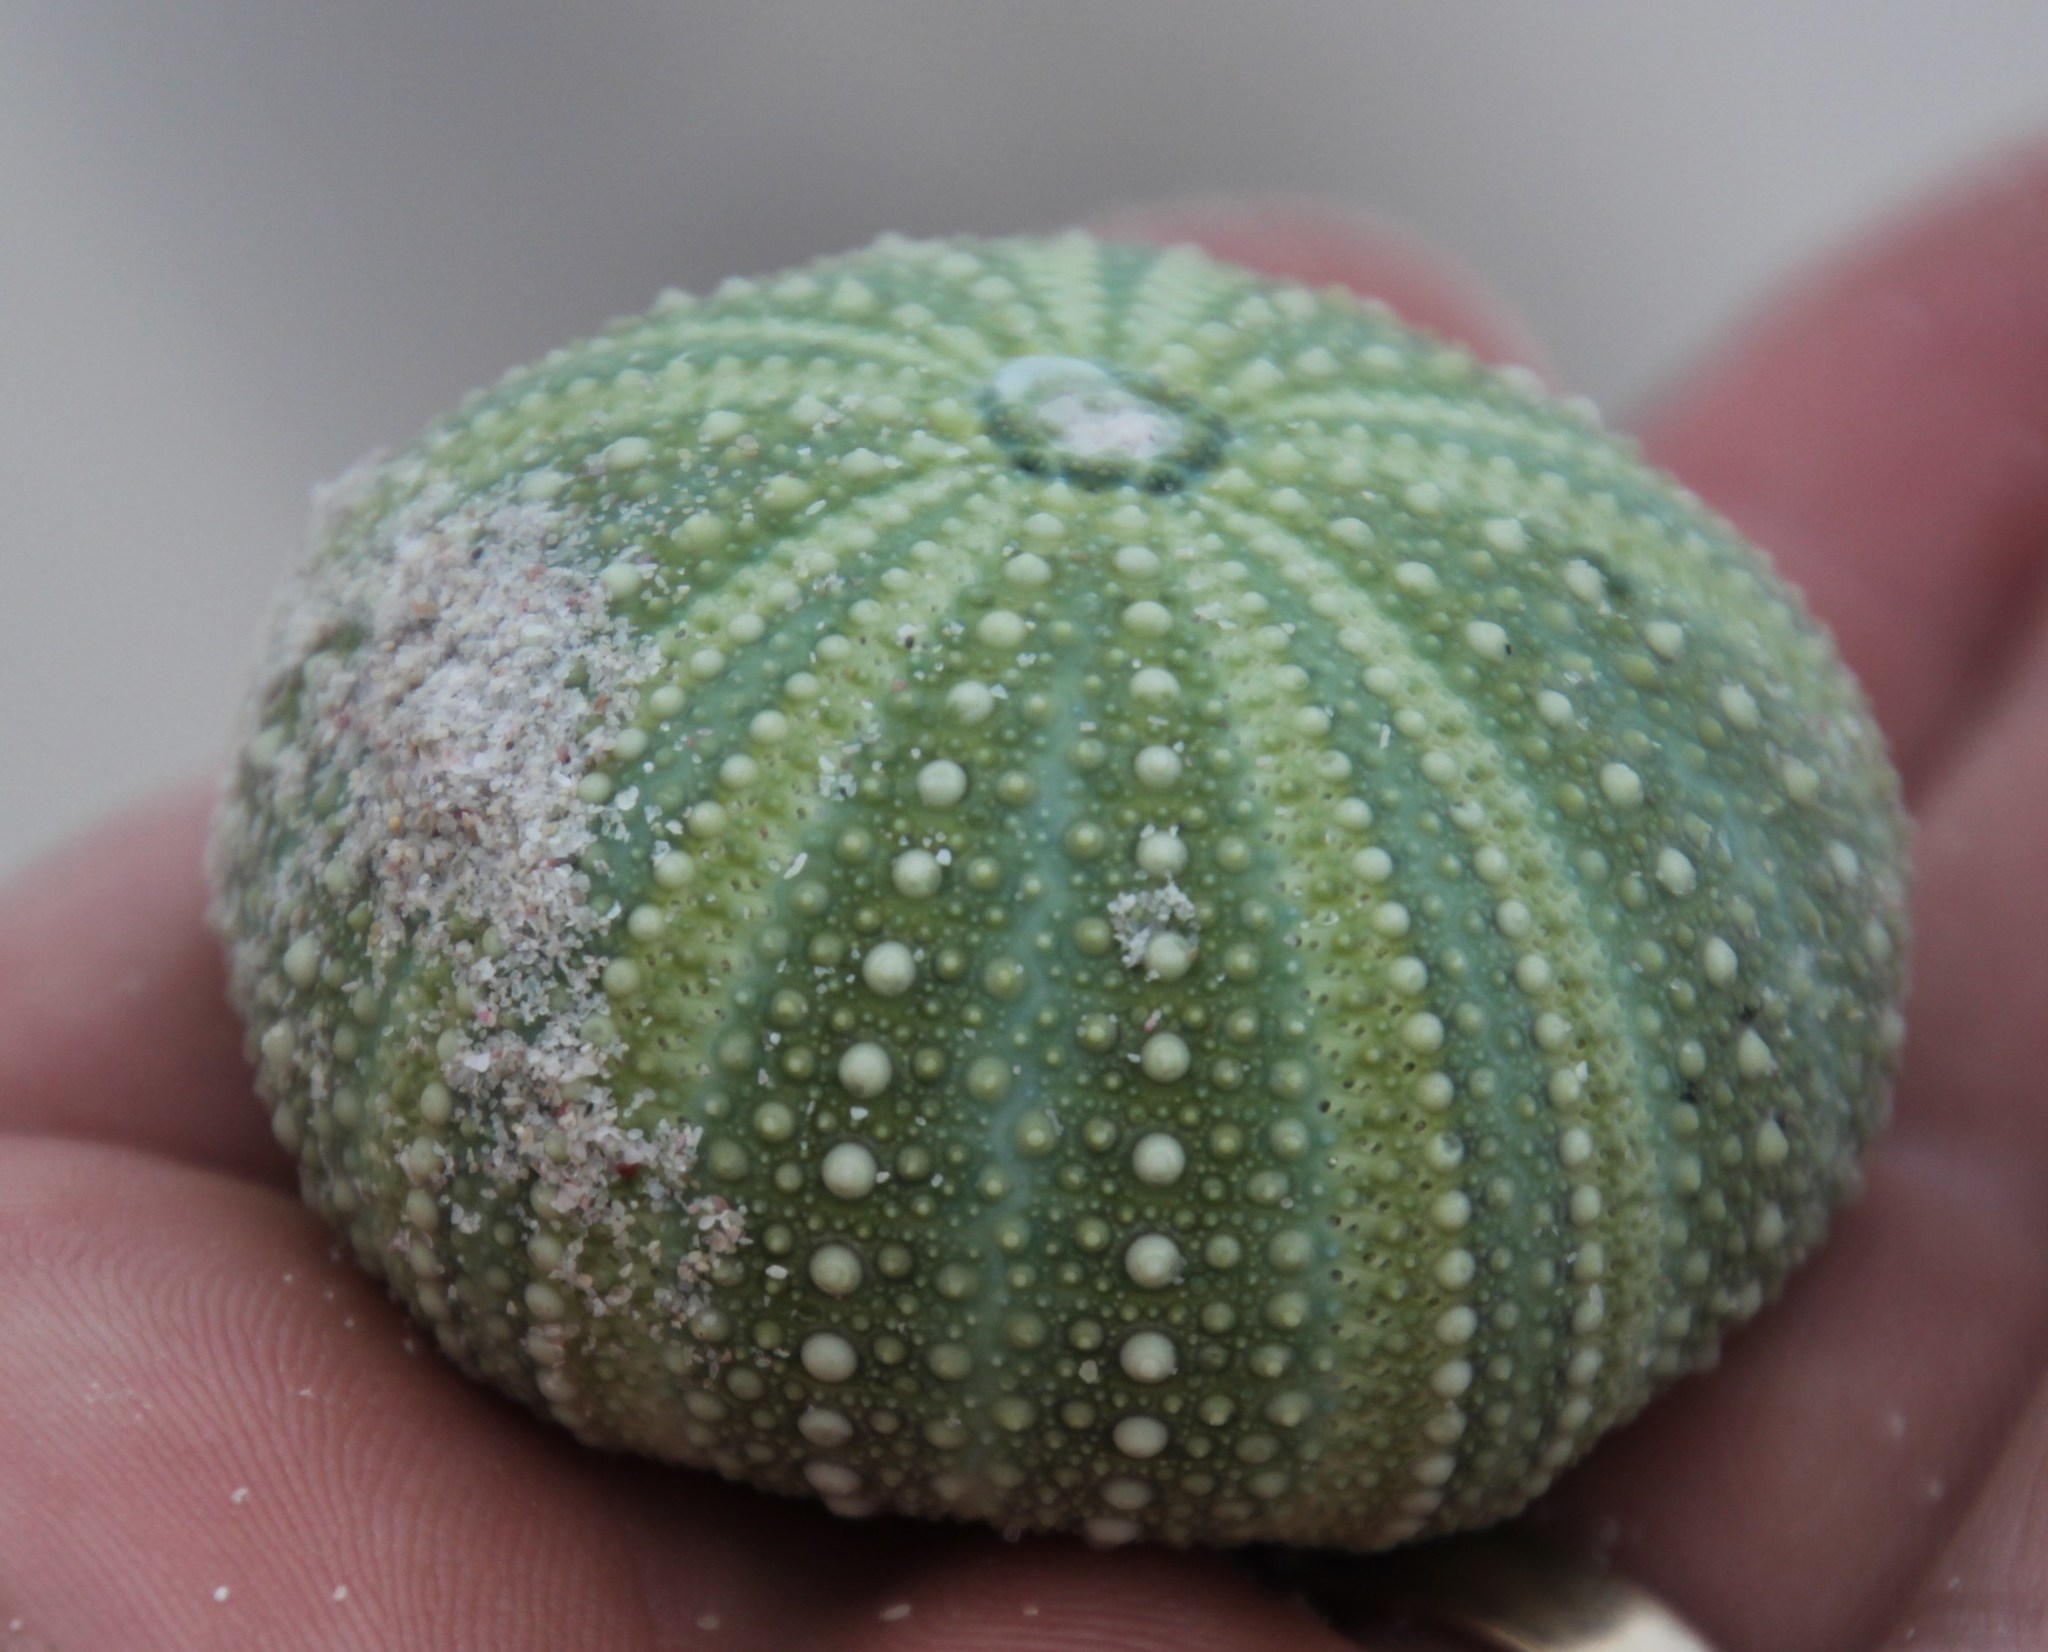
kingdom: Animalia
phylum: Echinodermata
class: Echinoidea
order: Camarodonta
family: Parechinidae
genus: Parechinus
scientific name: Parechinus angulosus
